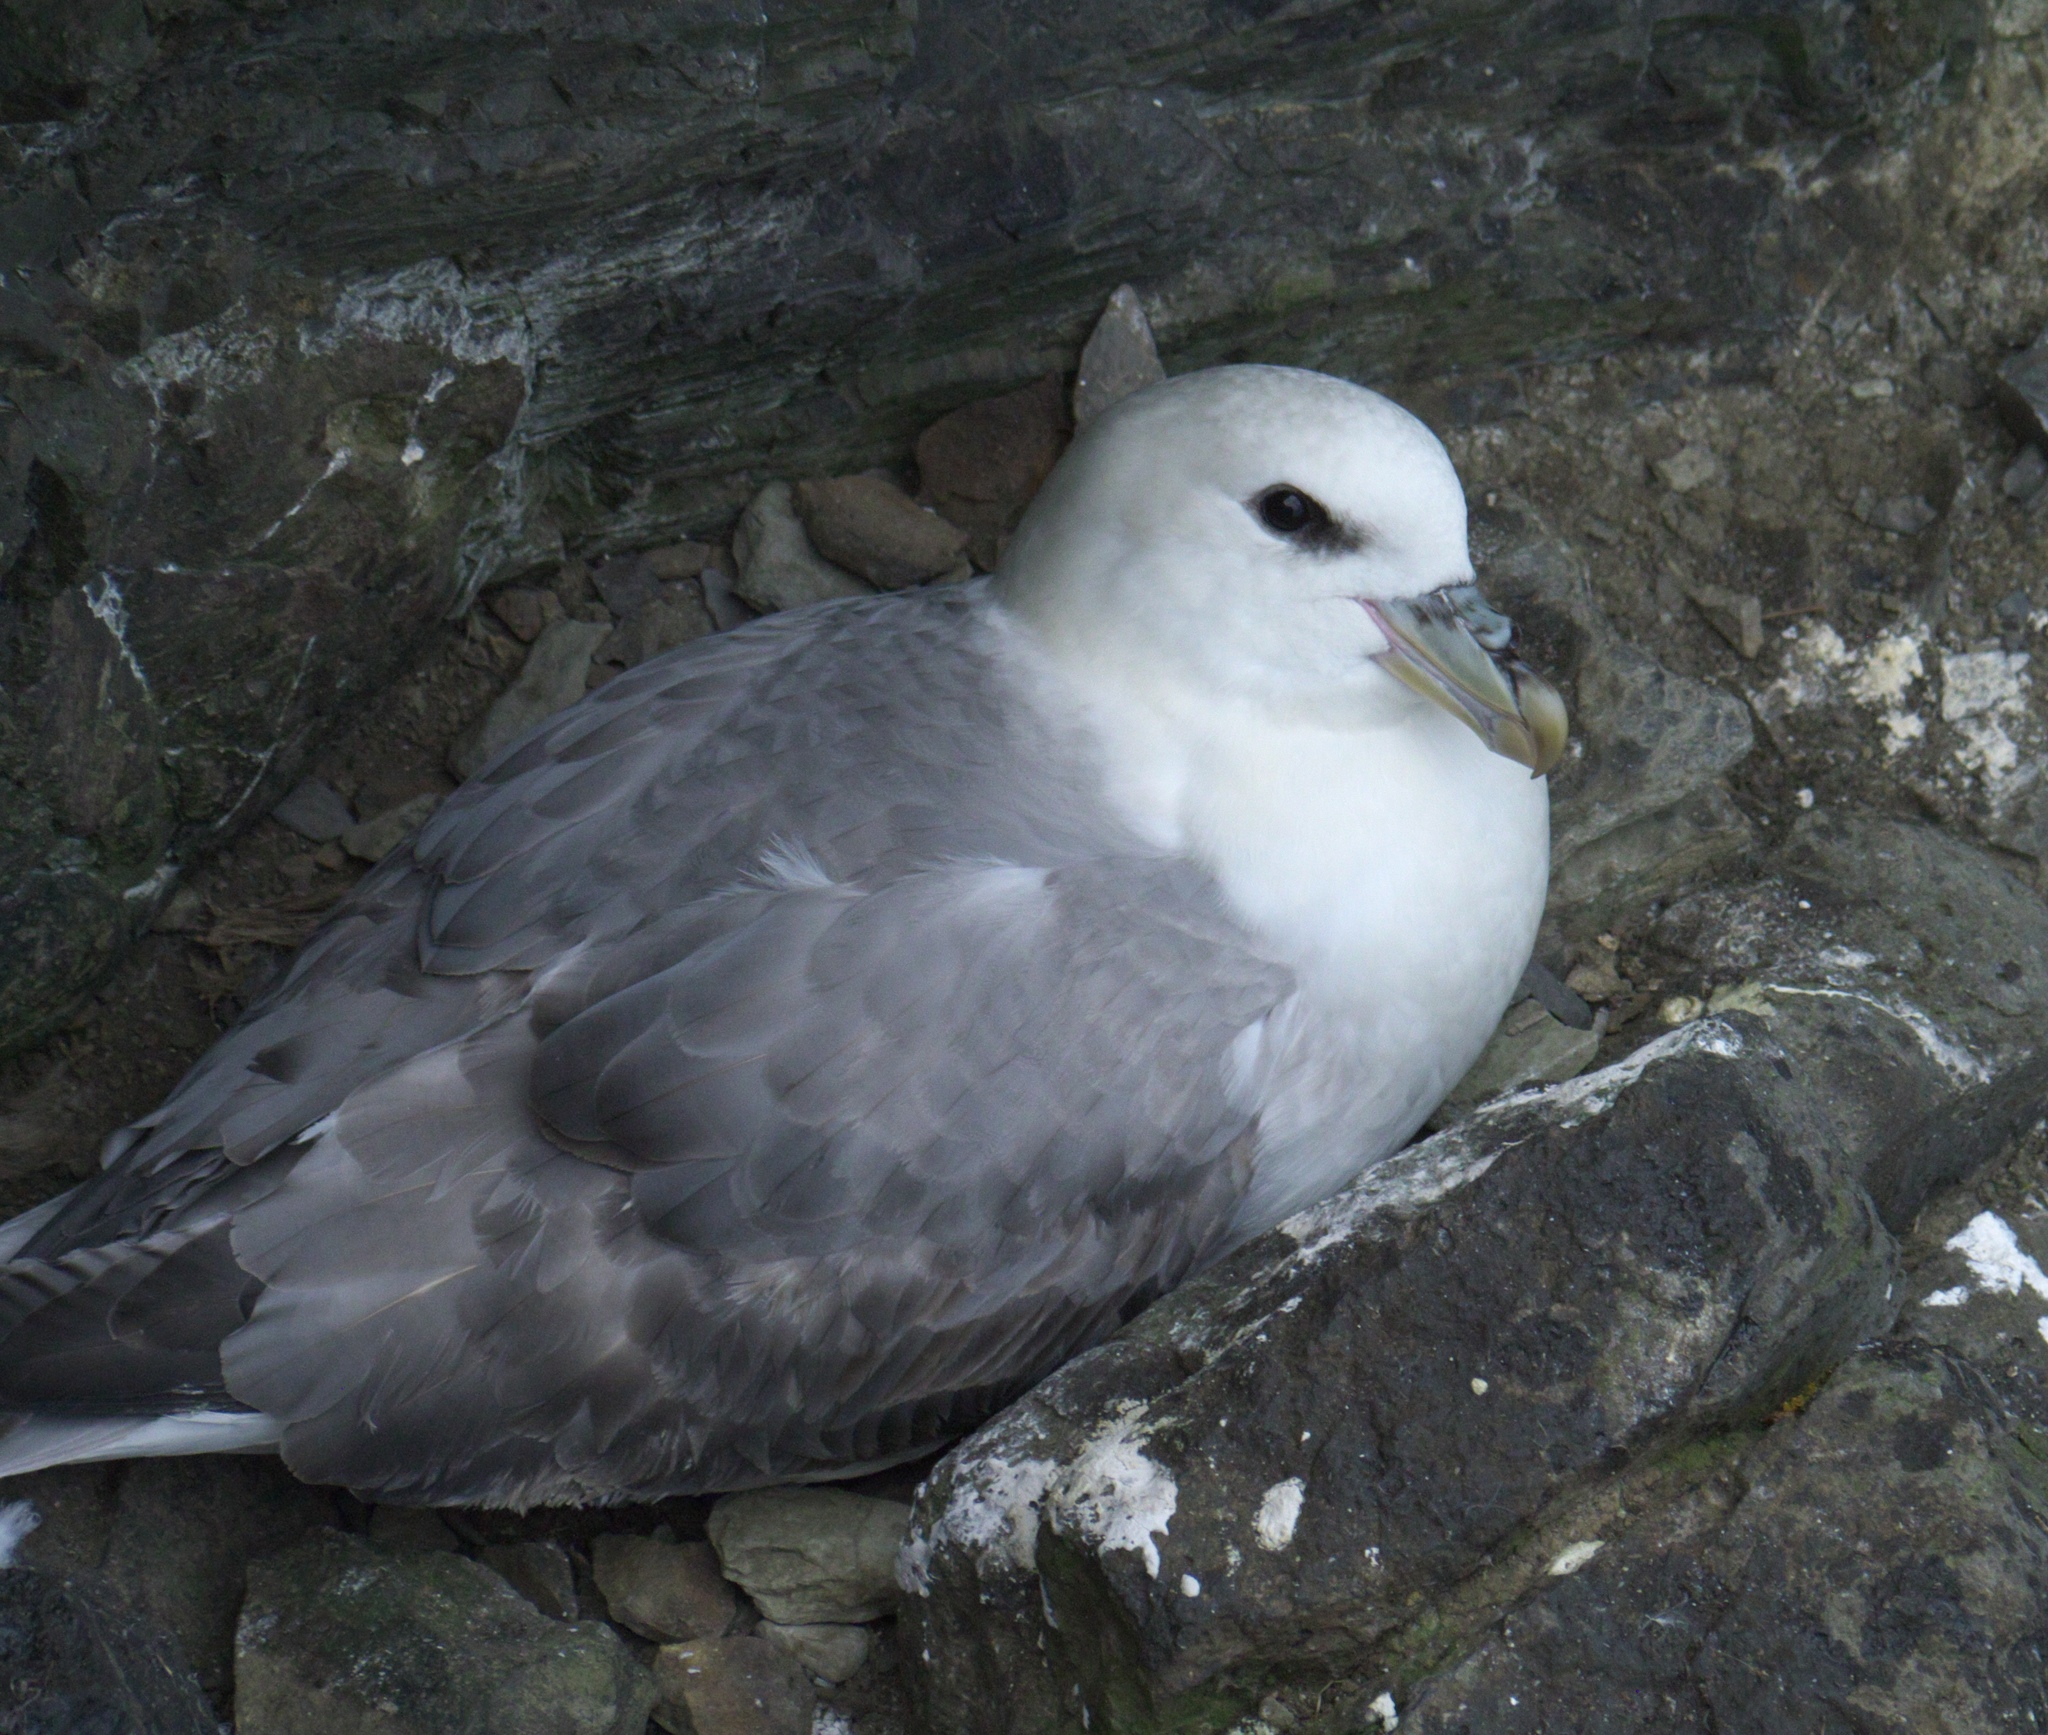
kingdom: Animalia
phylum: Chordata
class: Aves
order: Procellariiformes
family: Procellariidae
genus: Fulmarus
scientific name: Fulmarus glacialis
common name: Northern fulmar
